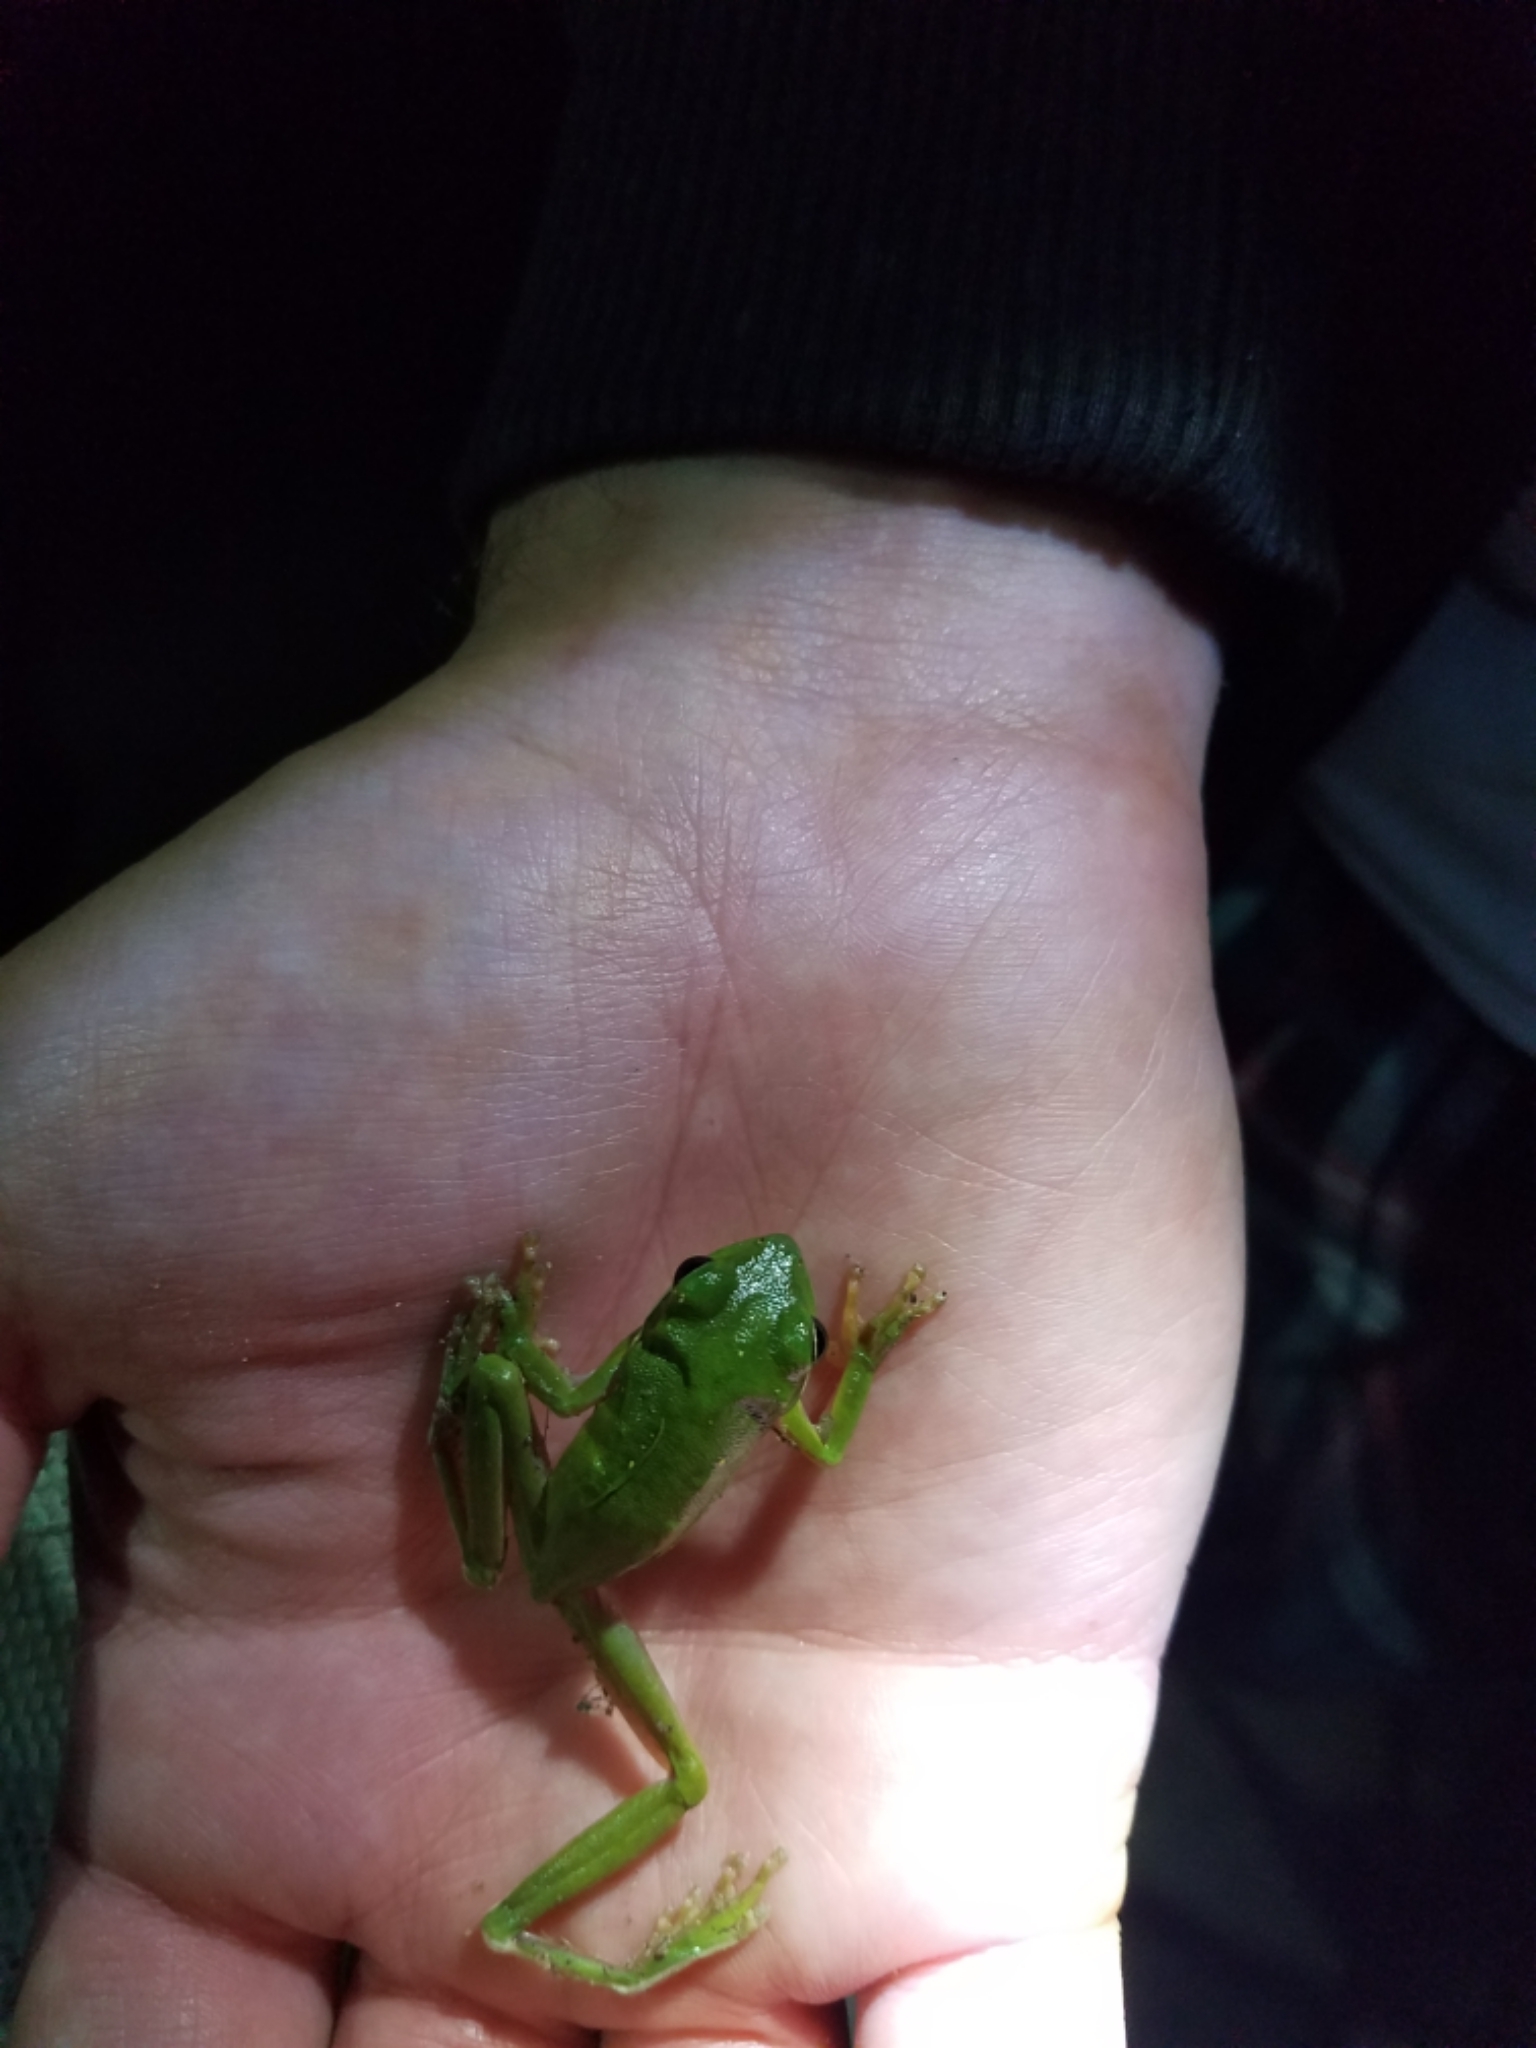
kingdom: Animalia
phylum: Chordata
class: Amphibia
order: Anura
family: Hylidae
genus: Dryophytes
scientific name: Dryophytes cinereus
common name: Green treefrog
